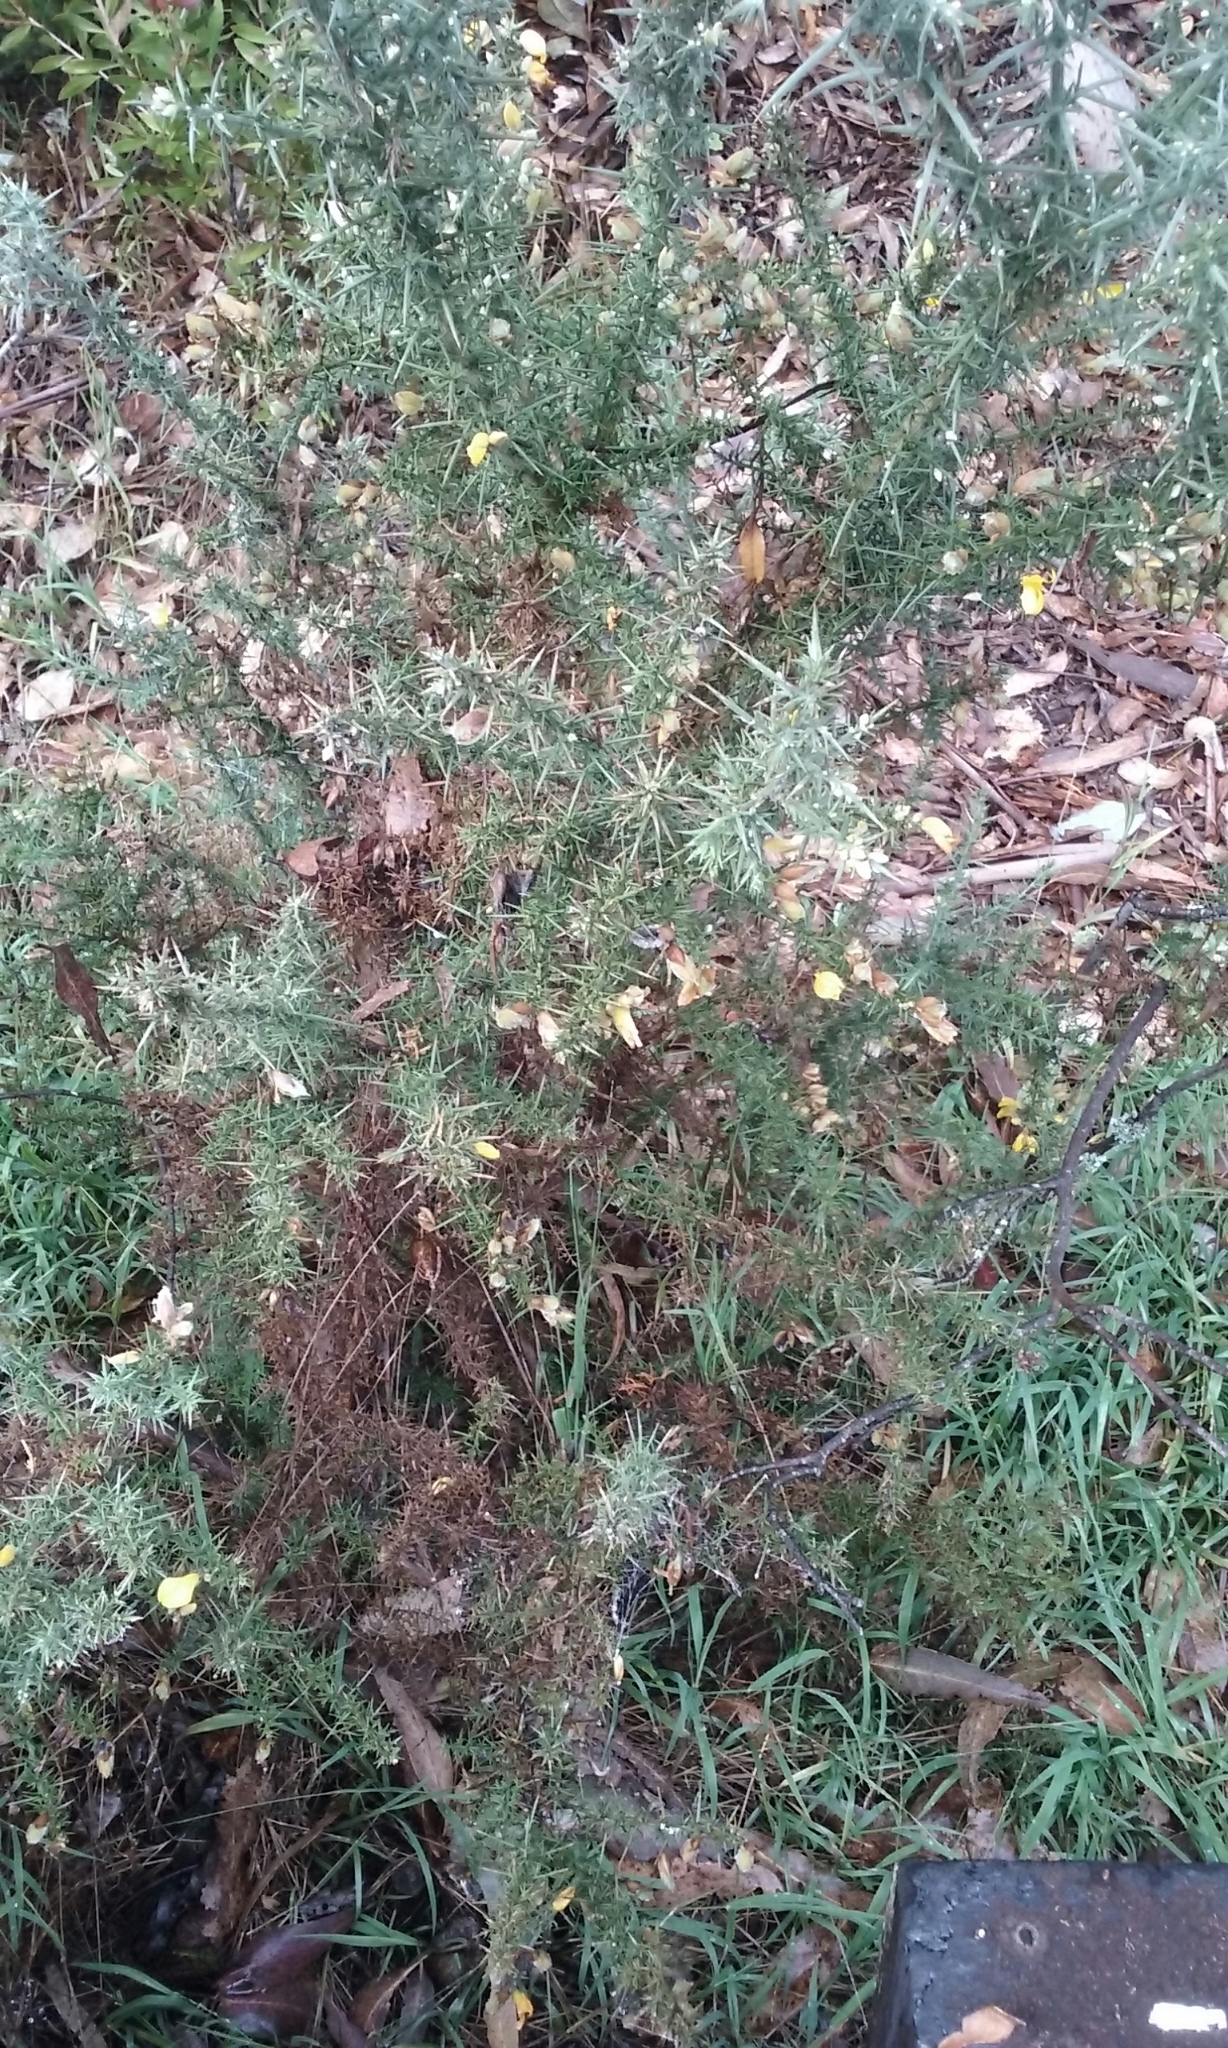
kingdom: Plantae
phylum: Tracheophyta
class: Magnoliopsida
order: Fabales
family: Fabaceae
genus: Ulex
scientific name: Ulex europaeus
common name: Common gorse
